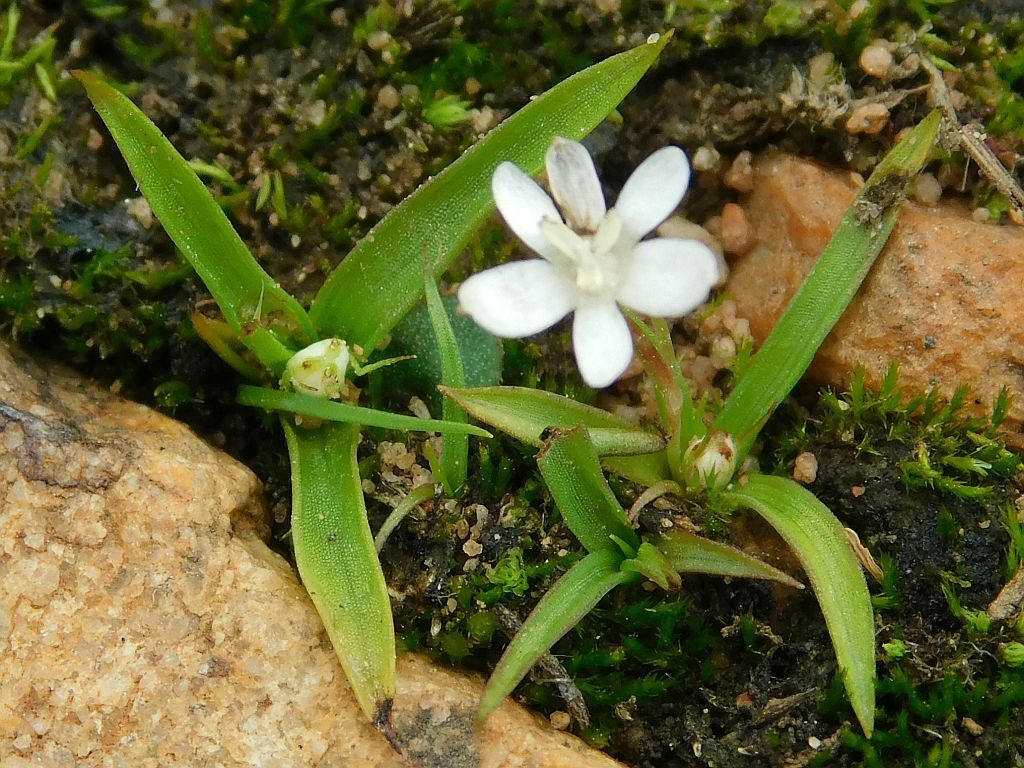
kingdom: Plantae
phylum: Tracheophyta
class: Liliopsida
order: Asparagales
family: Hypoxidaceae
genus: Pauridia
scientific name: Pauridia minuta
